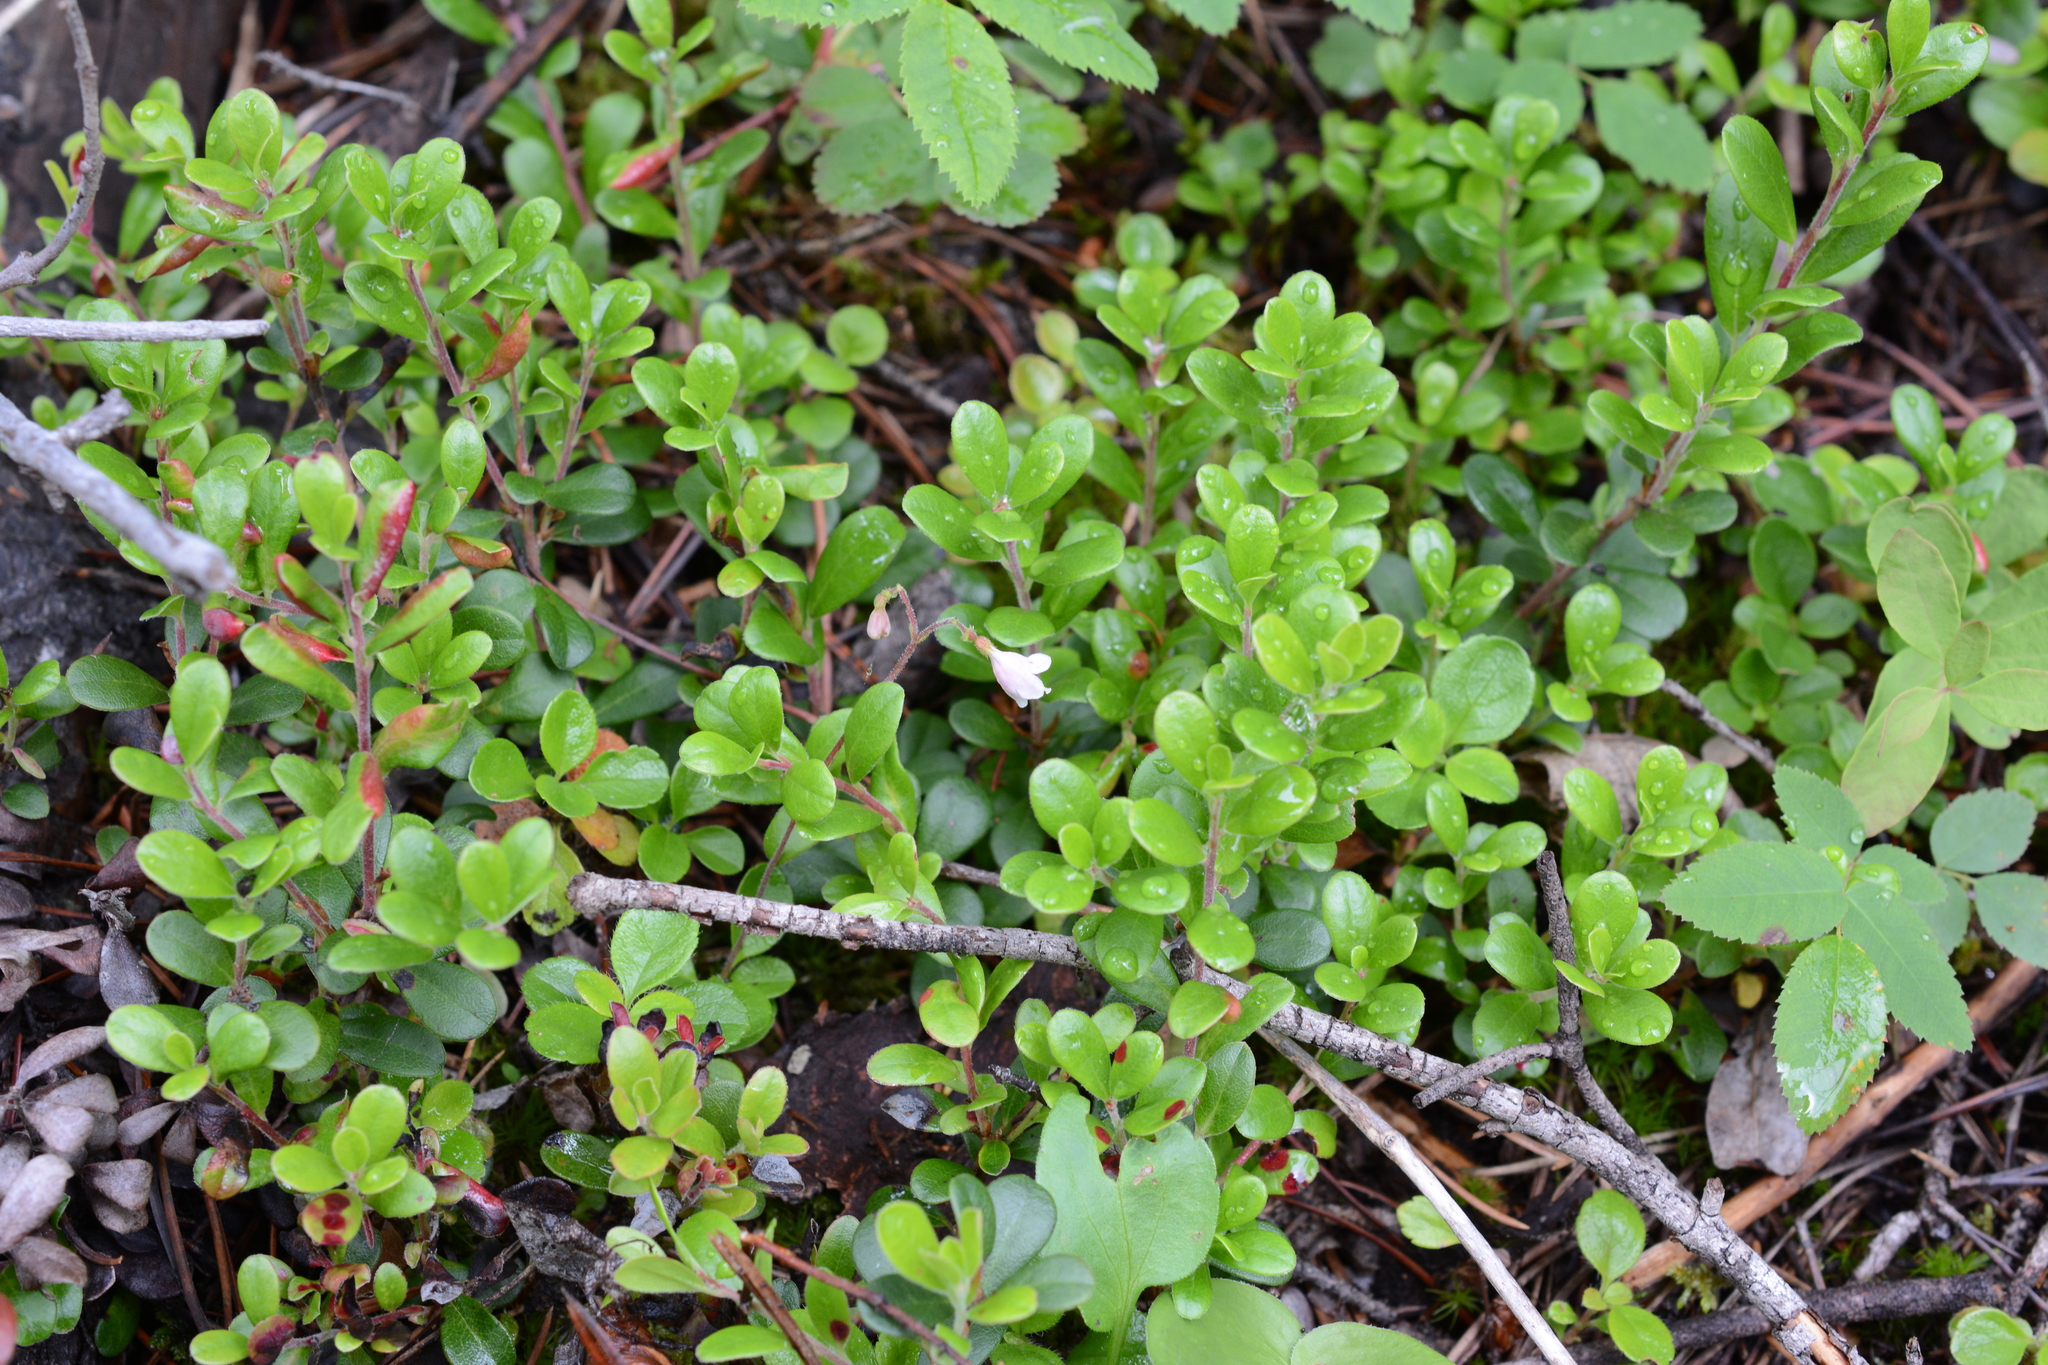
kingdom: Plantae
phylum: Tracheophyta
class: Magnoliopsida
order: Ericales
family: Ericaceae
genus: Arctostaphylos
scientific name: Arctostaphylos uva-ursi
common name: Bearberry
